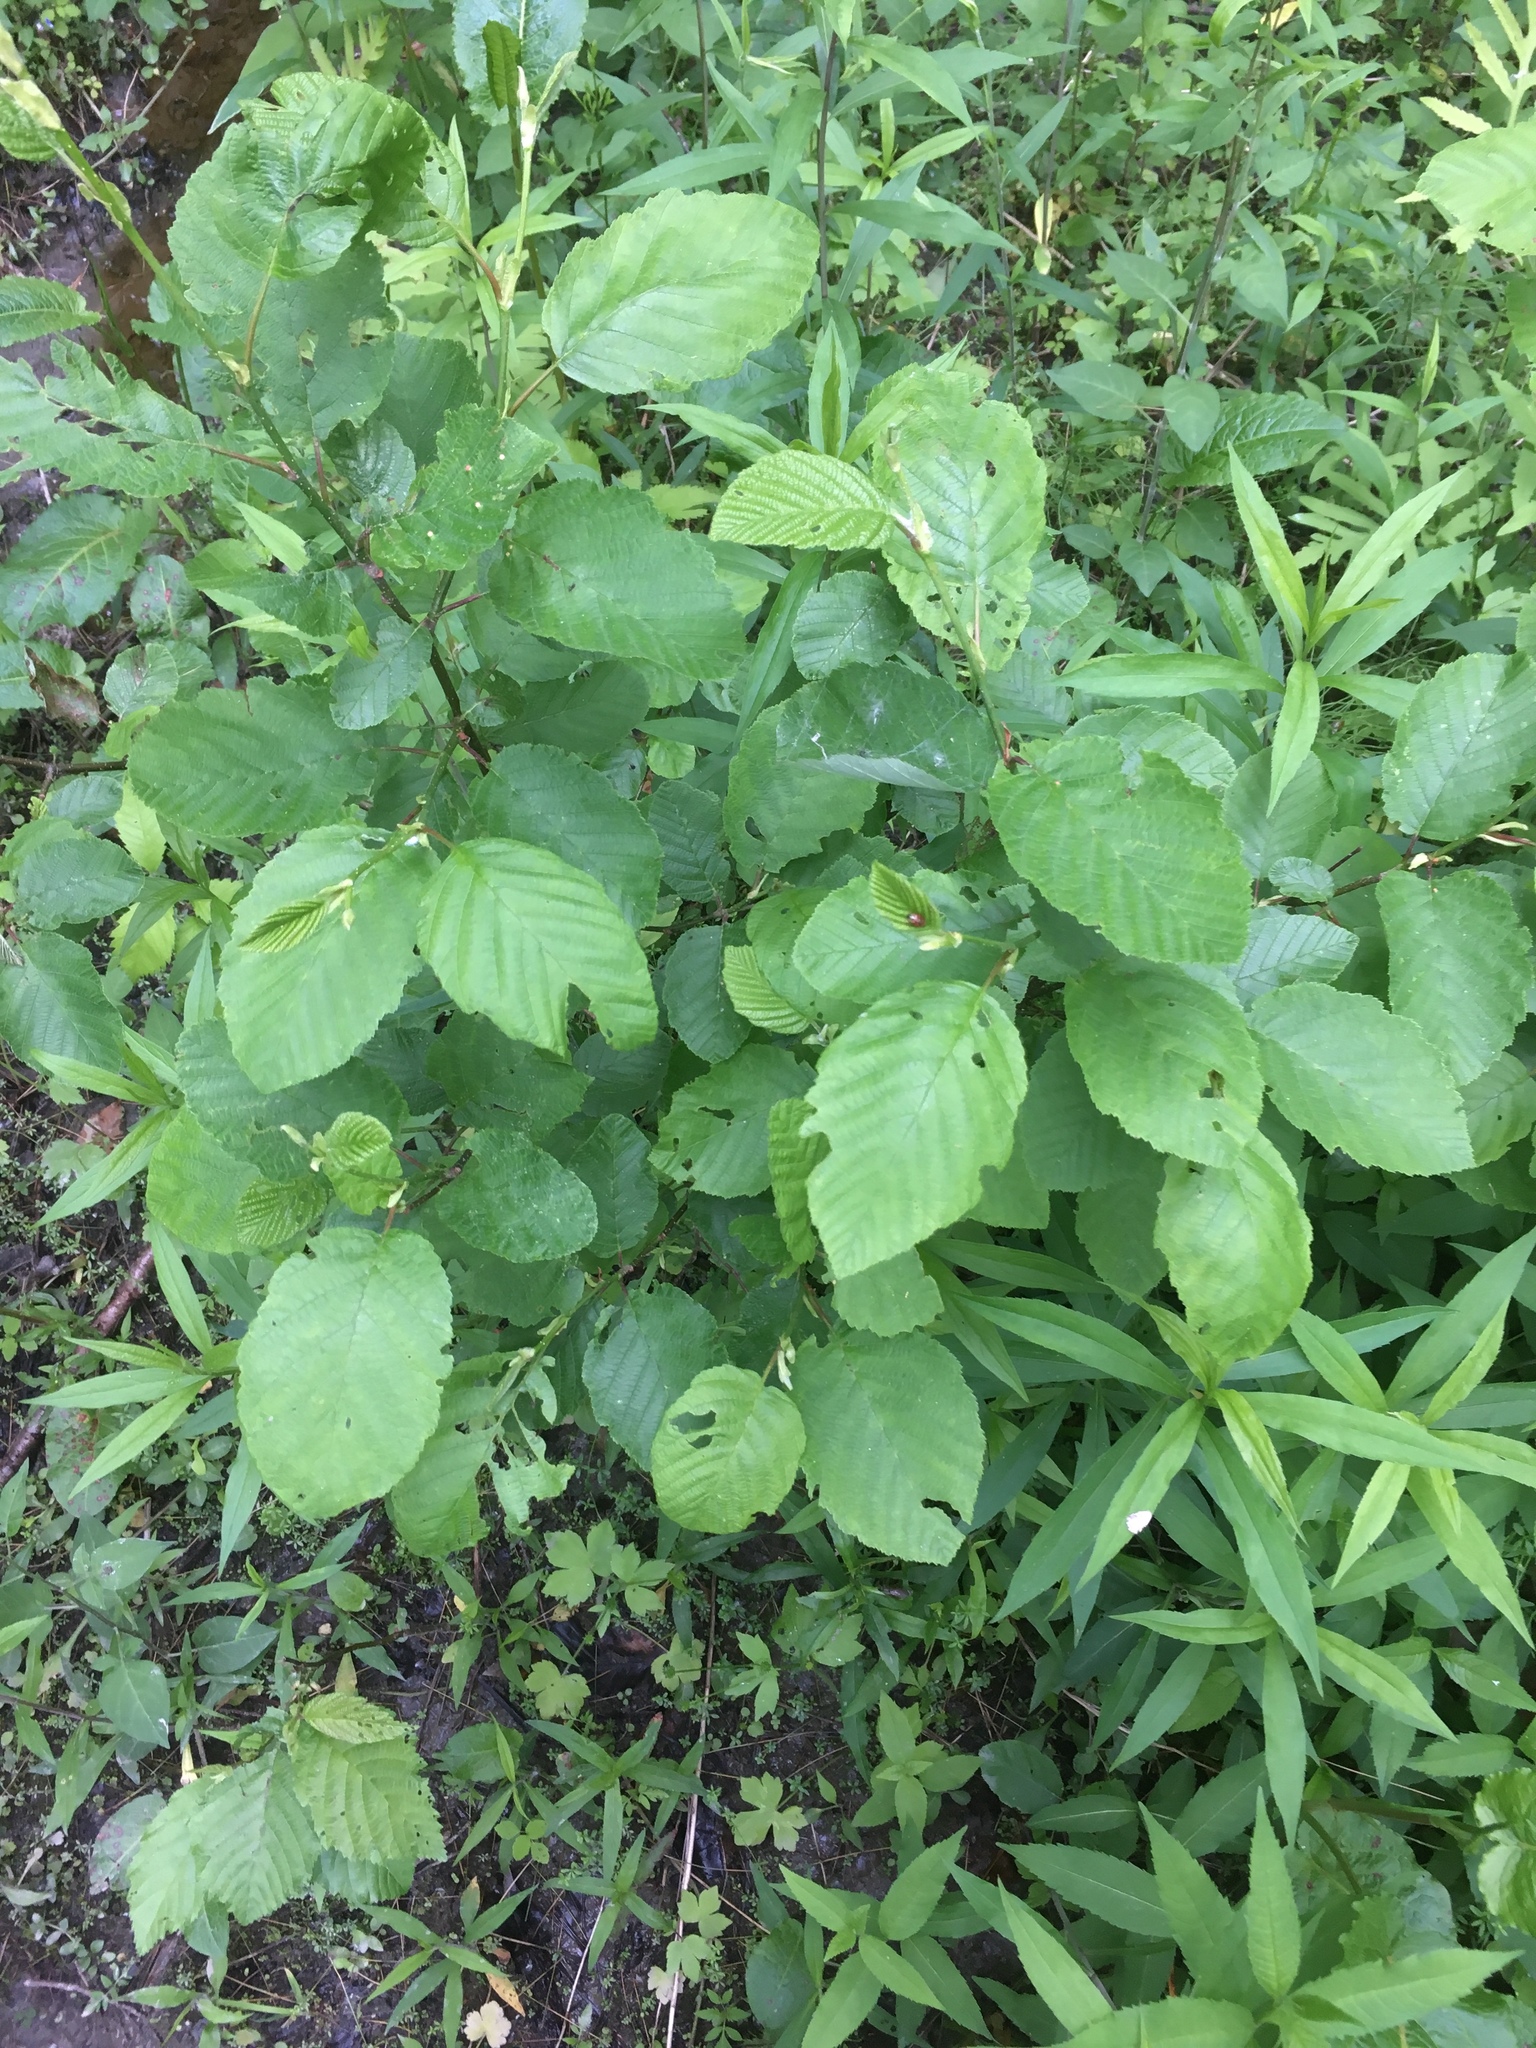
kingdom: Plantae
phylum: Tracheophyta
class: Magnoliopsida
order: Fagales
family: Betulaceae
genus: Alnus
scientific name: Alnus incana
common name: Grey alder
